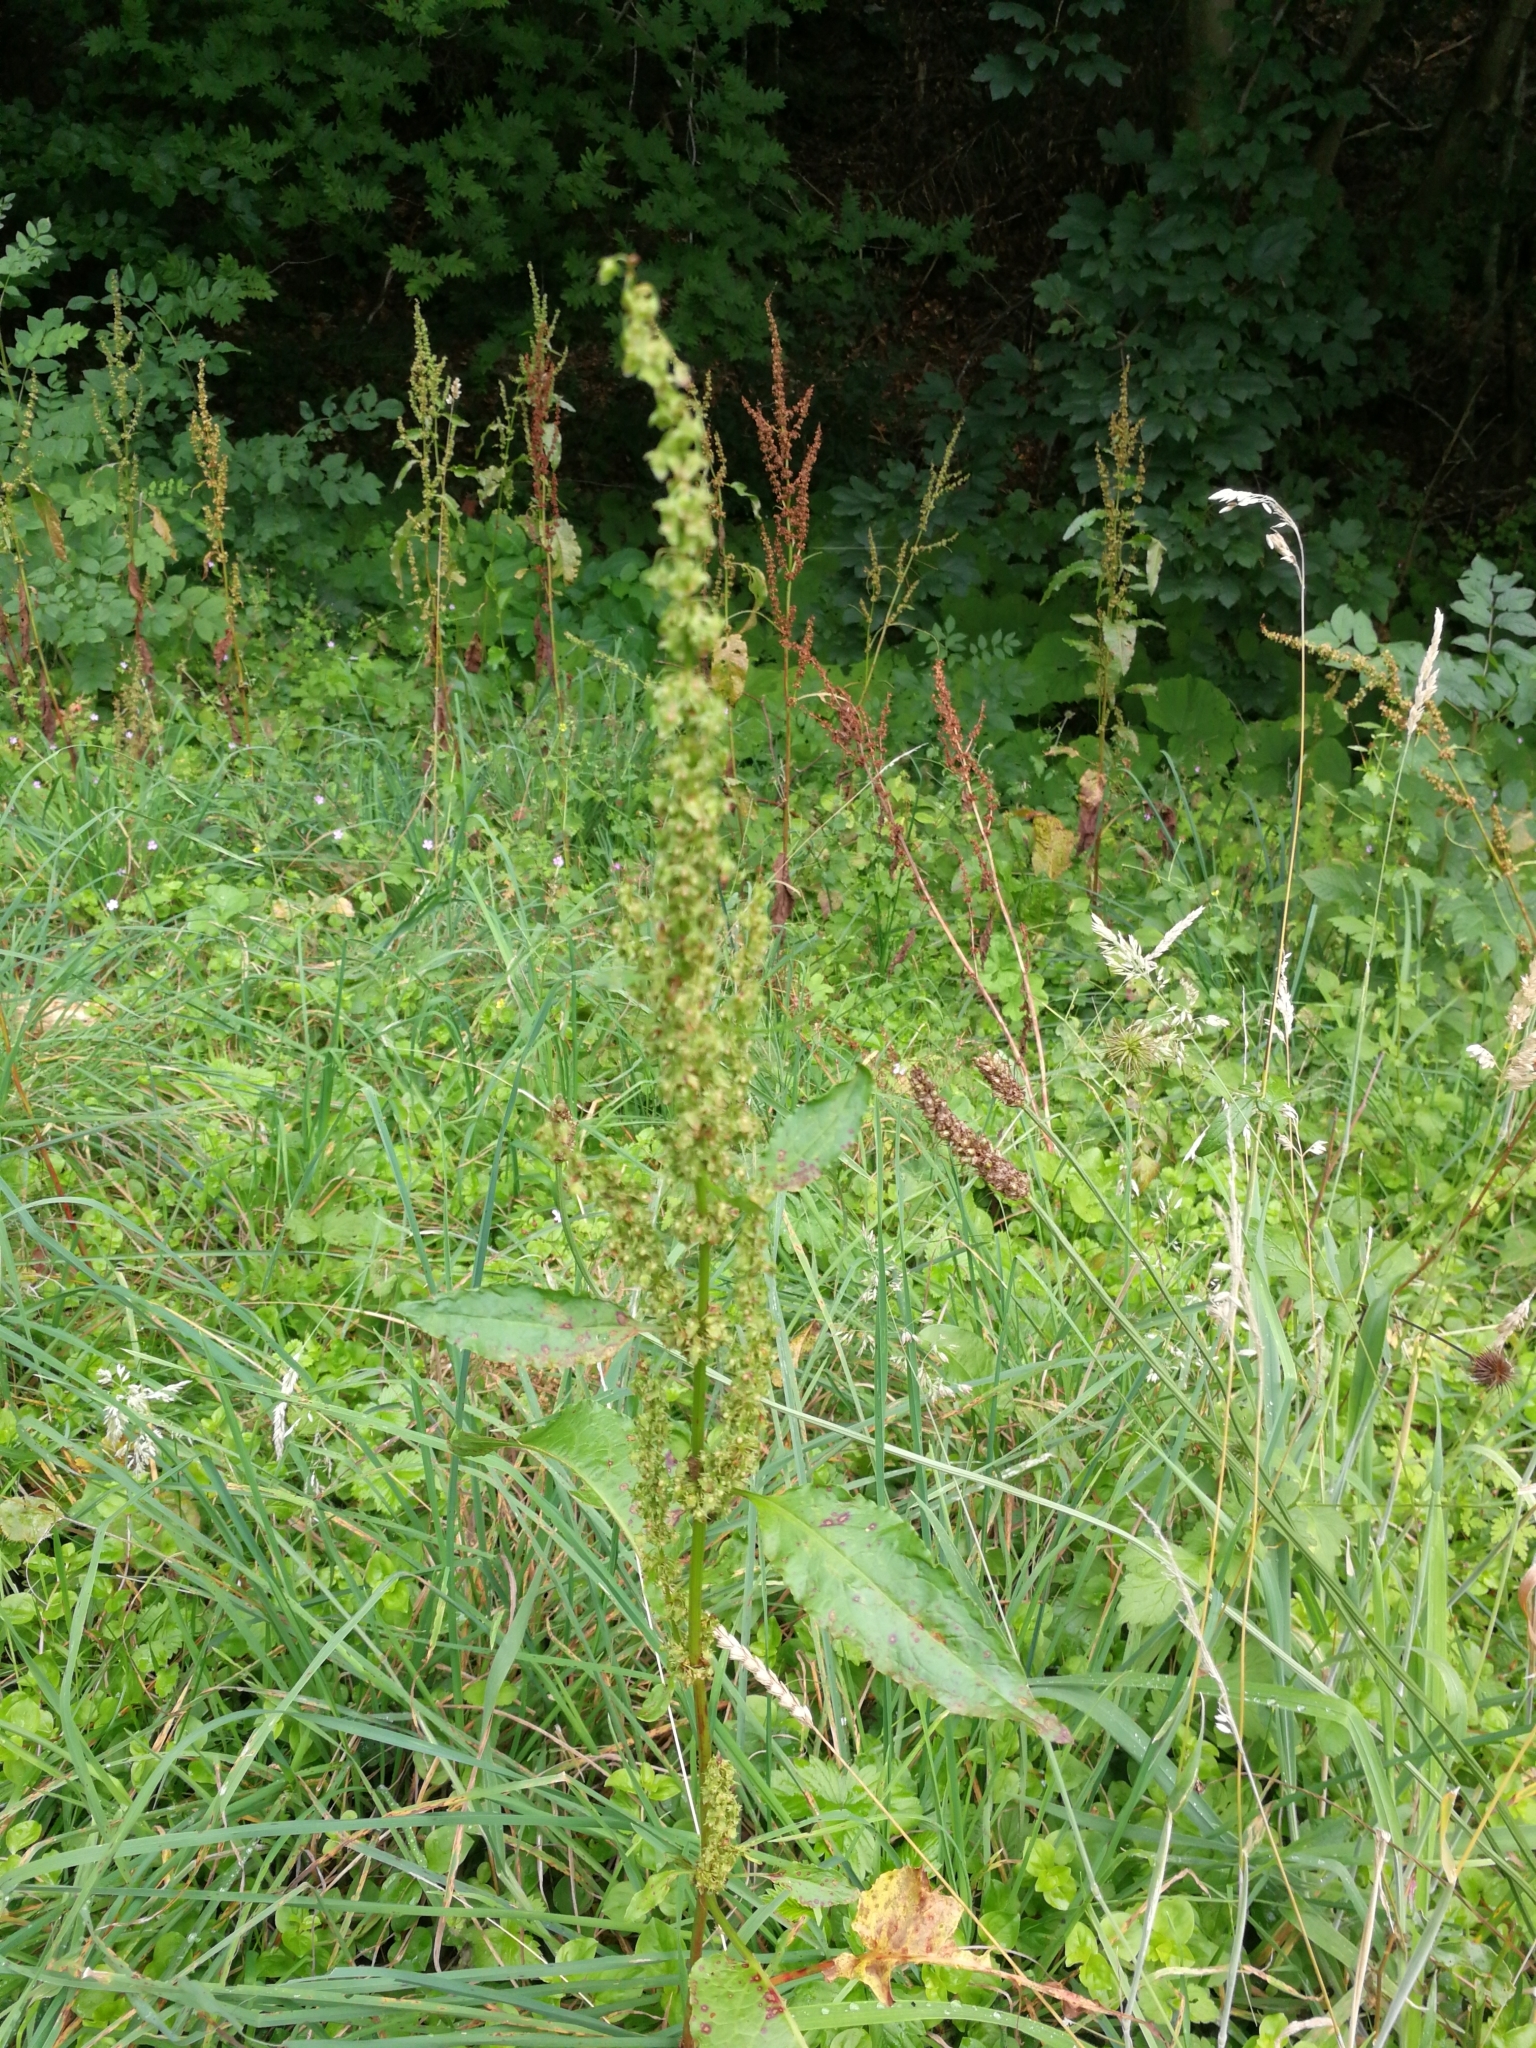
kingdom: Plantae
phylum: Tracheophyta
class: Magnoliopsida
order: Caryophyllales
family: Polygonaceae
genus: Rumex
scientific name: Rumex obtusifolius
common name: Bitter dock
